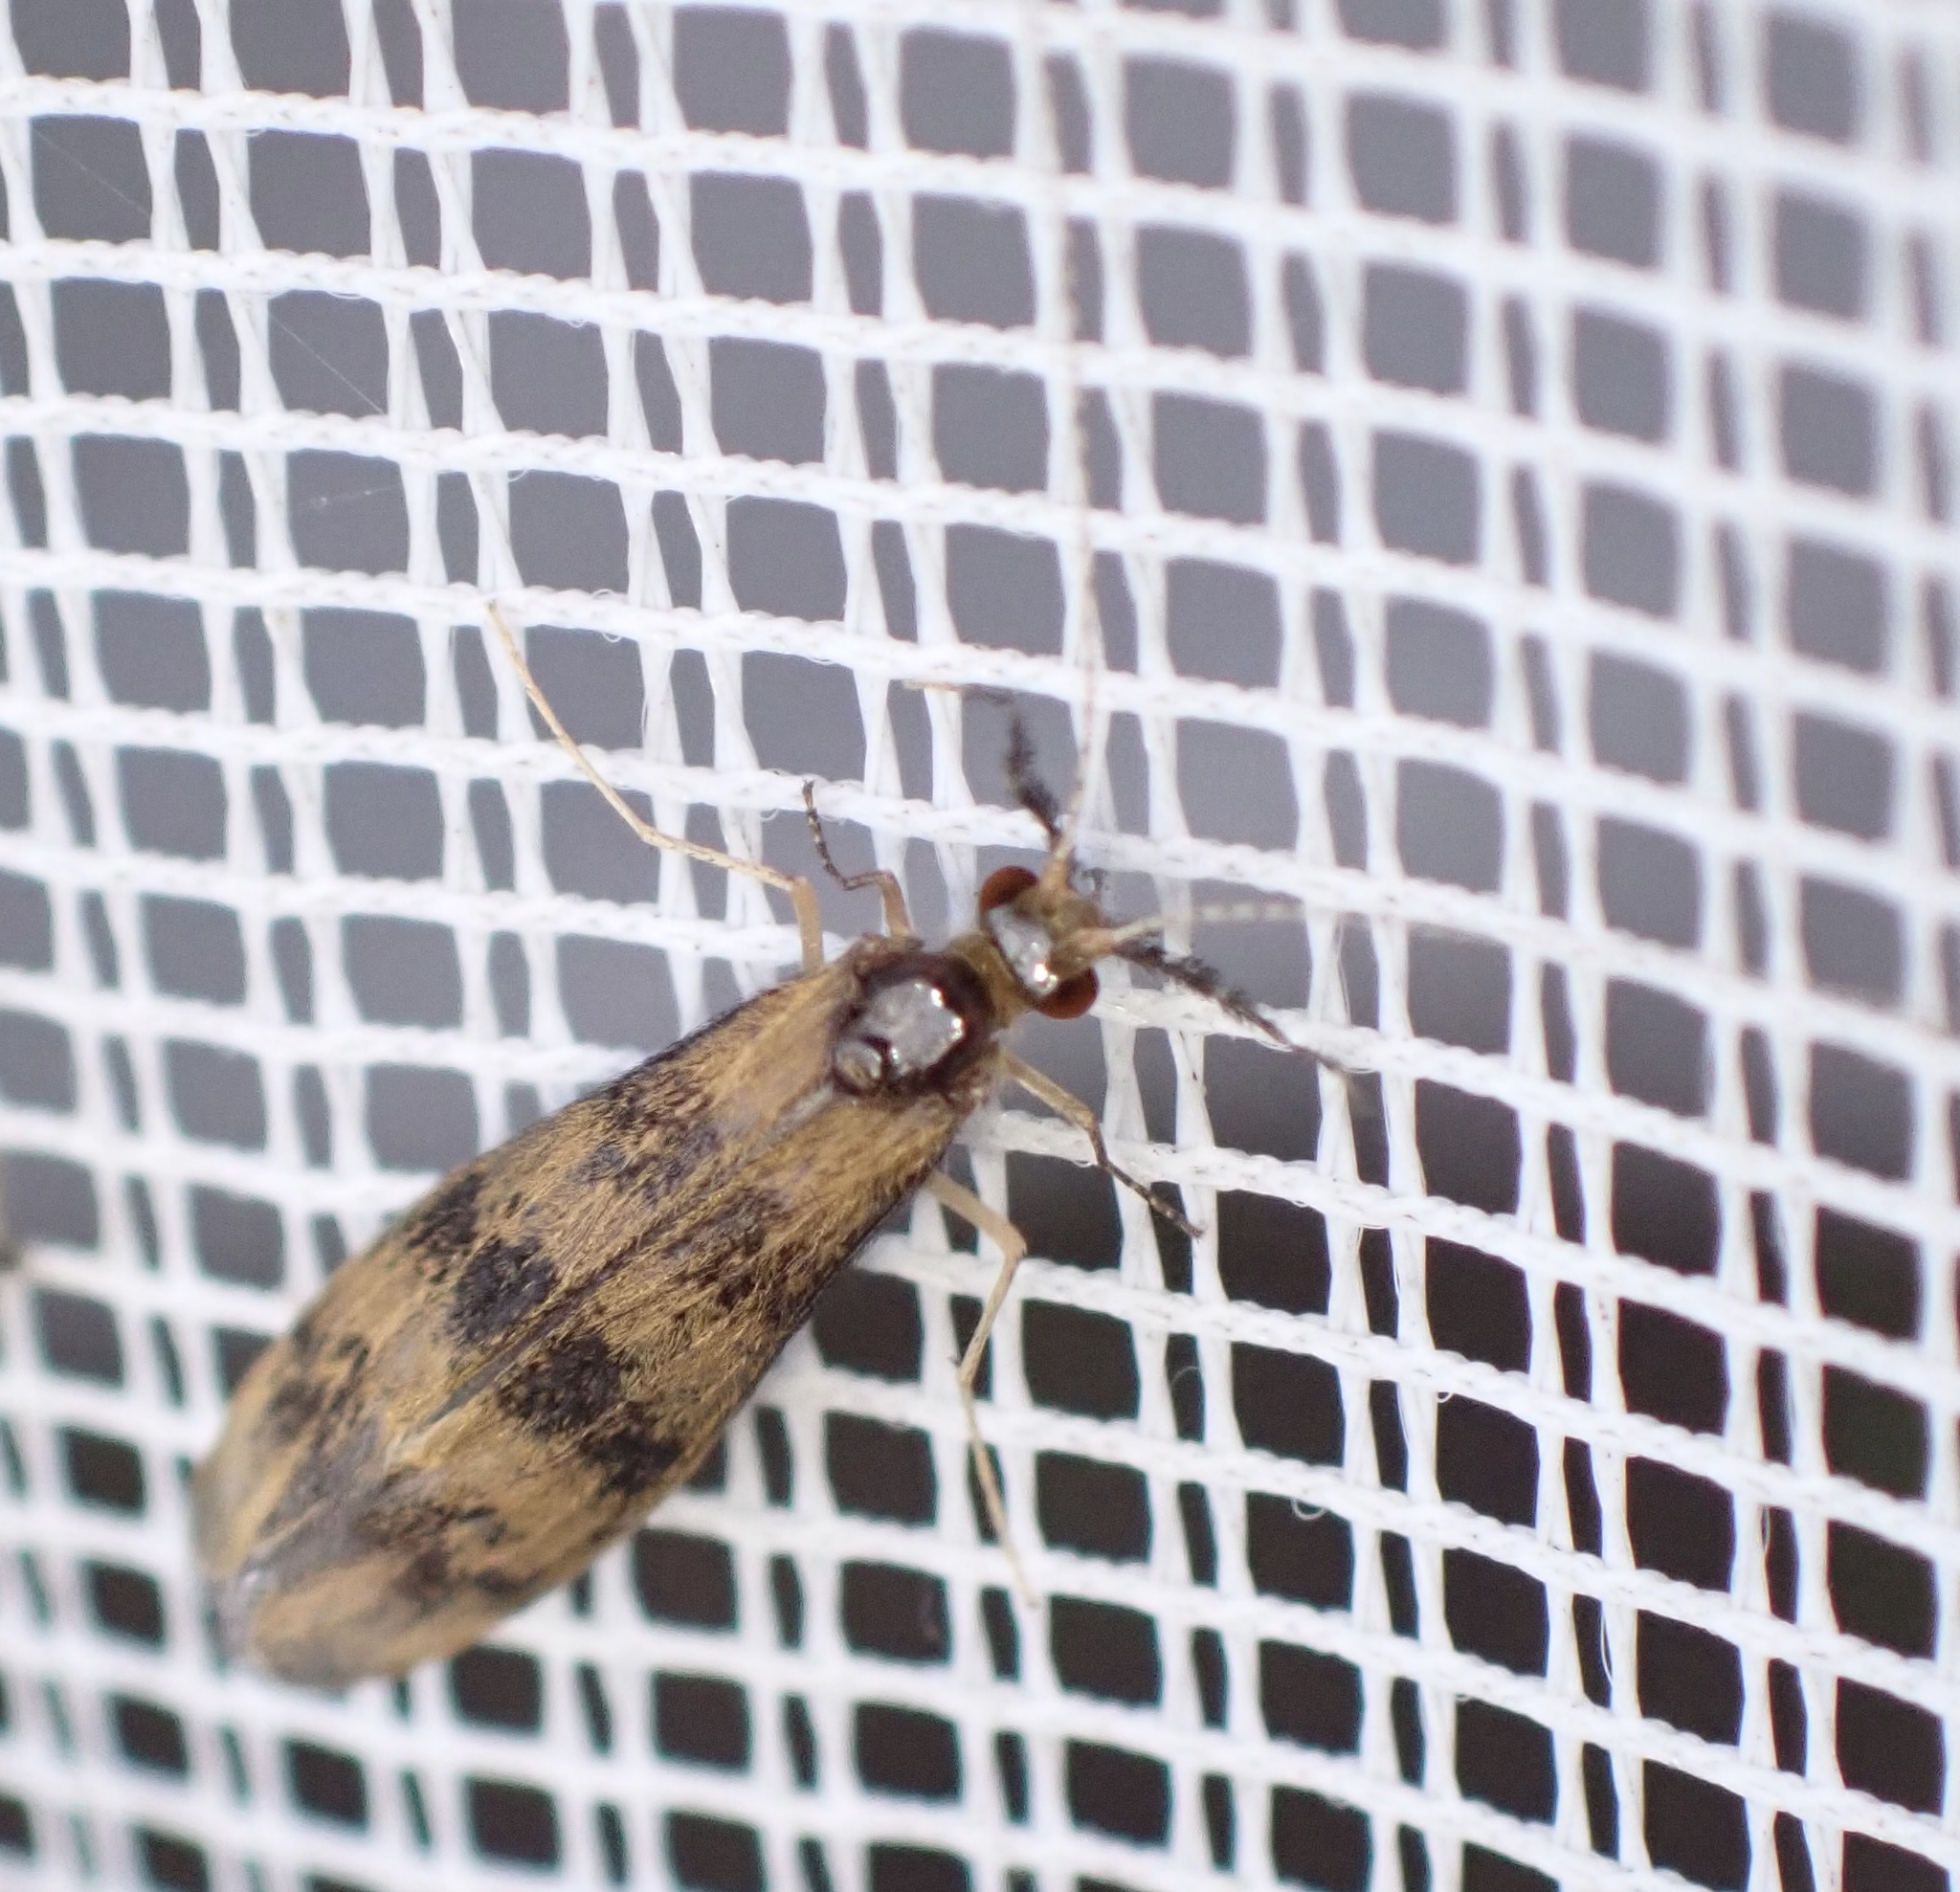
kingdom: Animalia
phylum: Arthropoda
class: Insecta
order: Trichoptera
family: Leptoceridae
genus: Mystacides
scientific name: Mystacides longicornis
